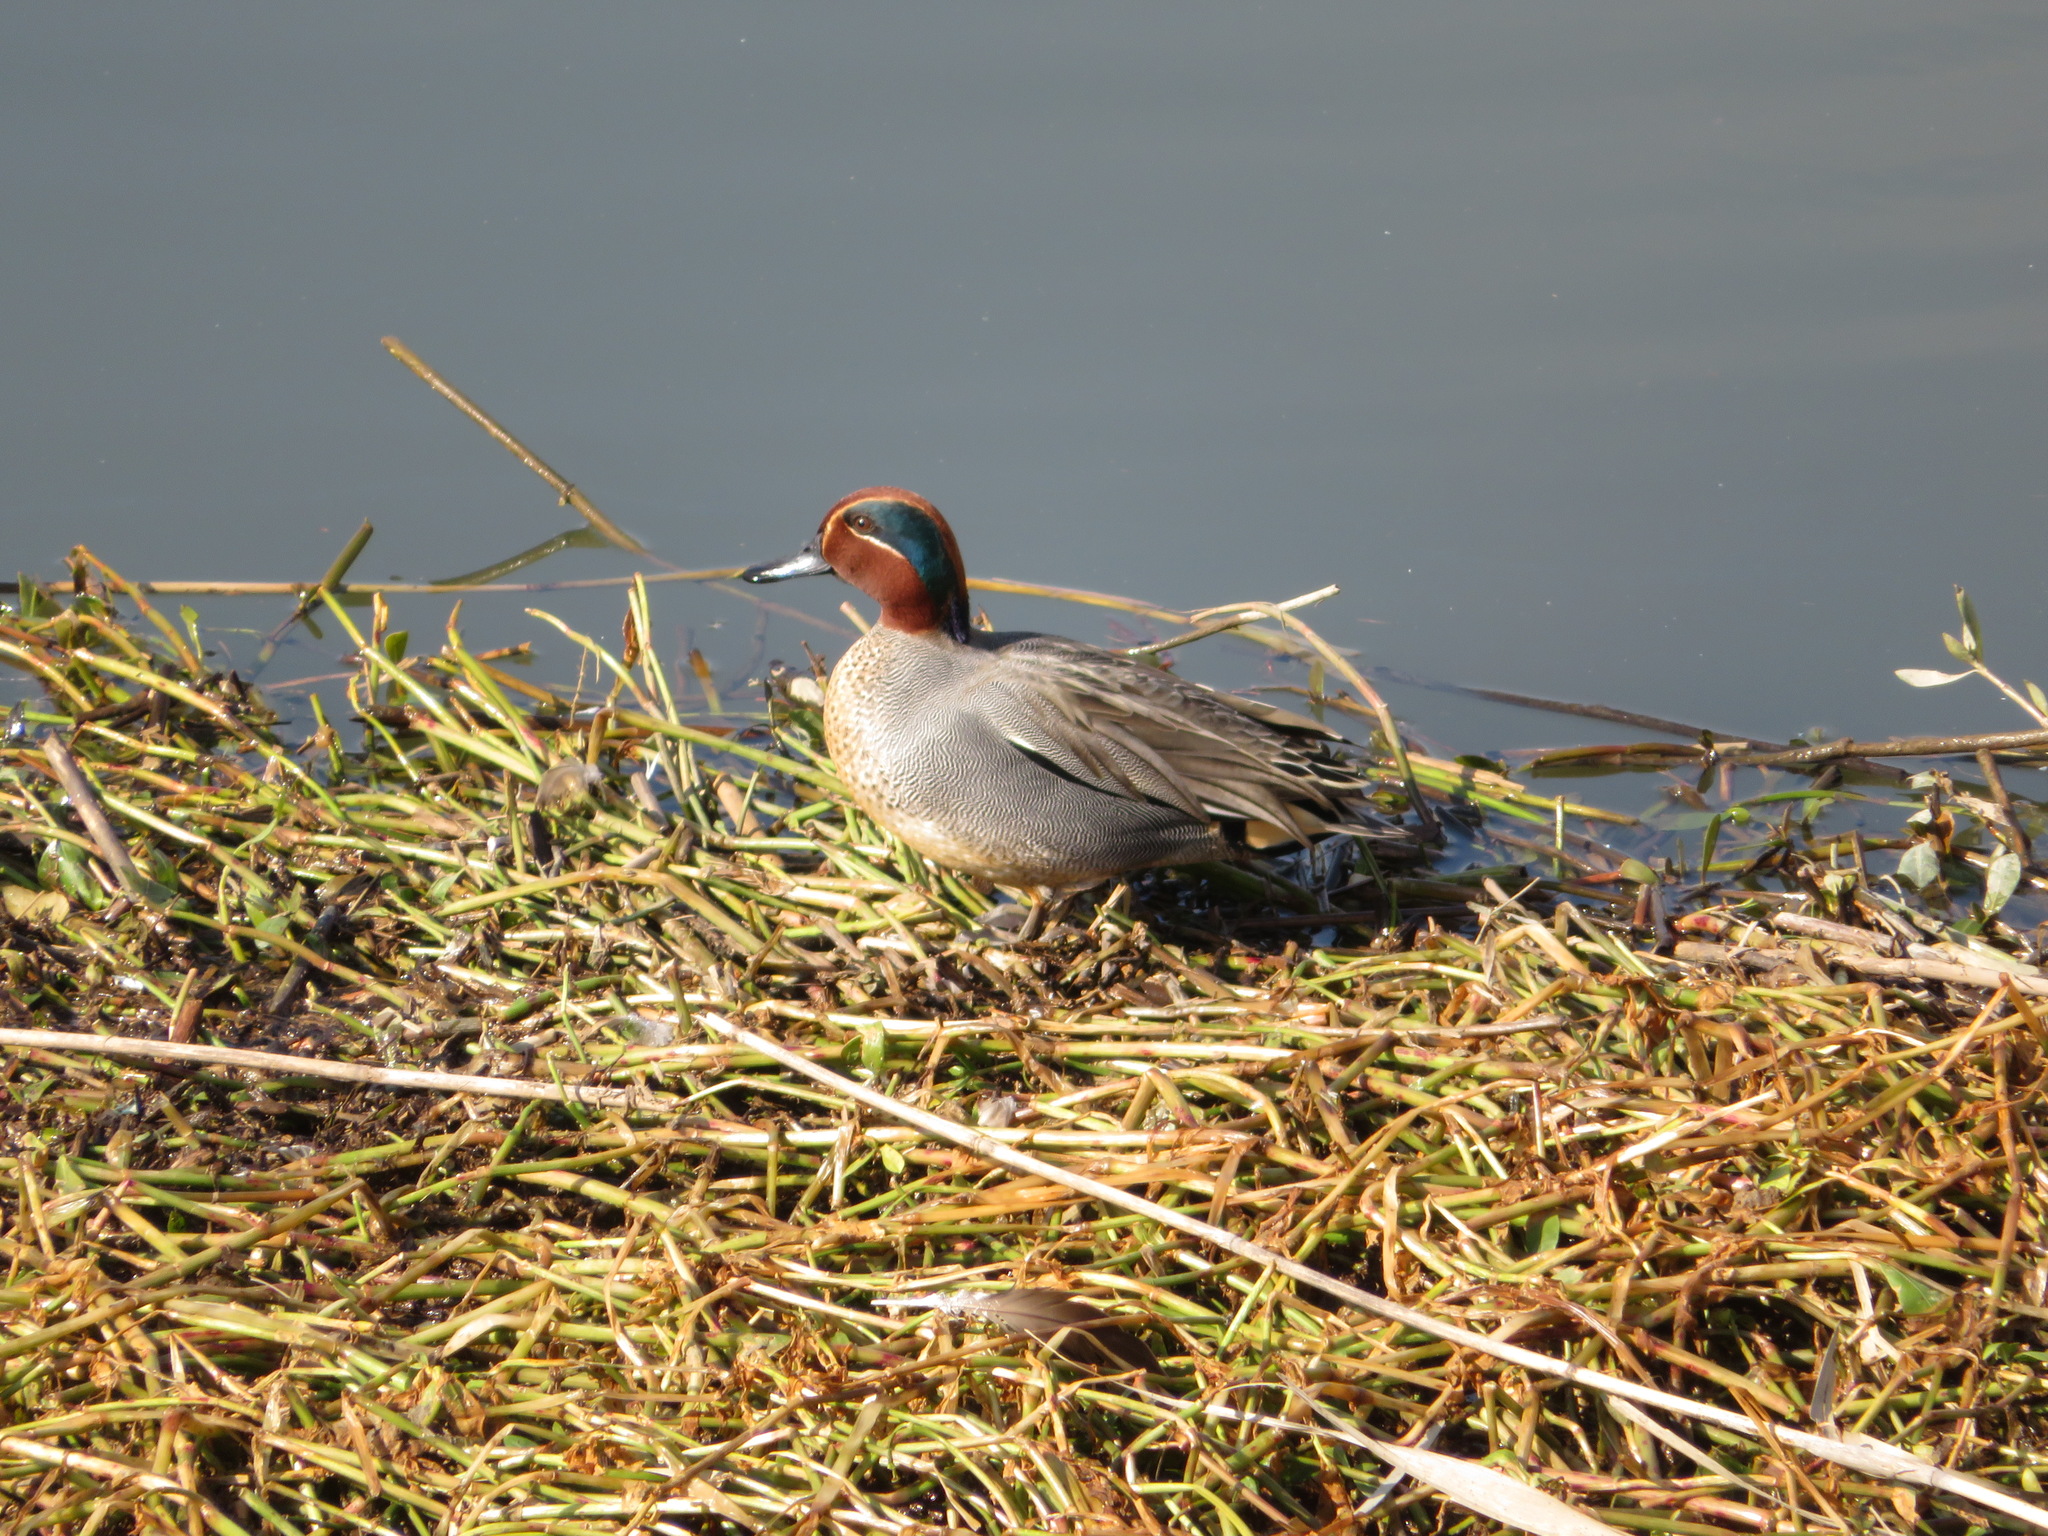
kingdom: Animalia
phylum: Chordata
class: Aves
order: Anseriformes
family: Anatidae
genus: Anas
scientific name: Anas crecca
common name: Eurasian teal
